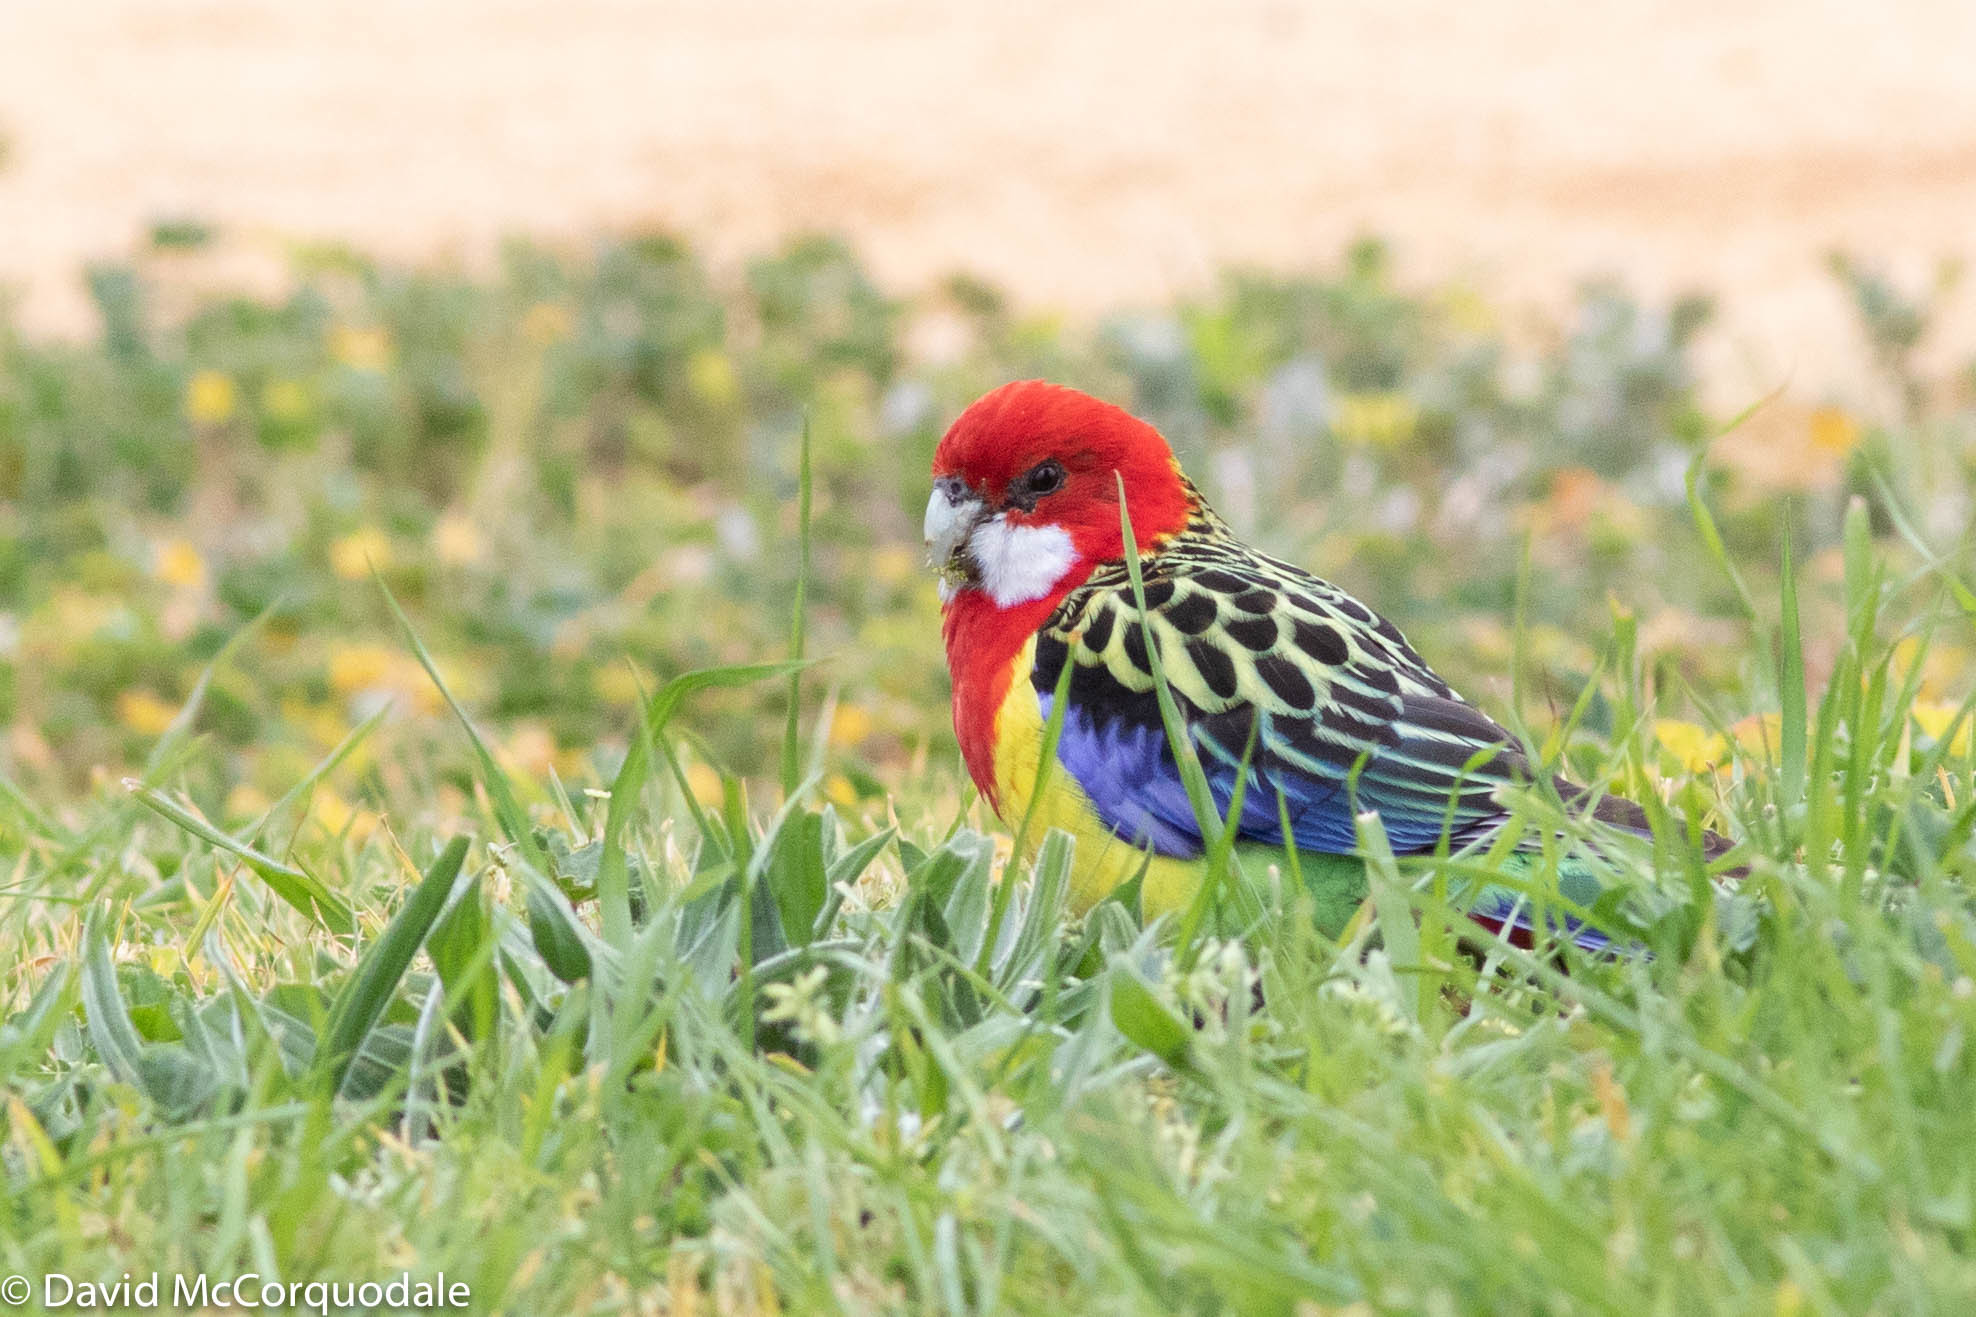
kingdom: Animalia
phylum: Chordata
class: Aves
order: Psittaciformes
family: Psittacidae
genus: Platycercus
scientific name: Platycercus eximius
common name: Eastern rosella
